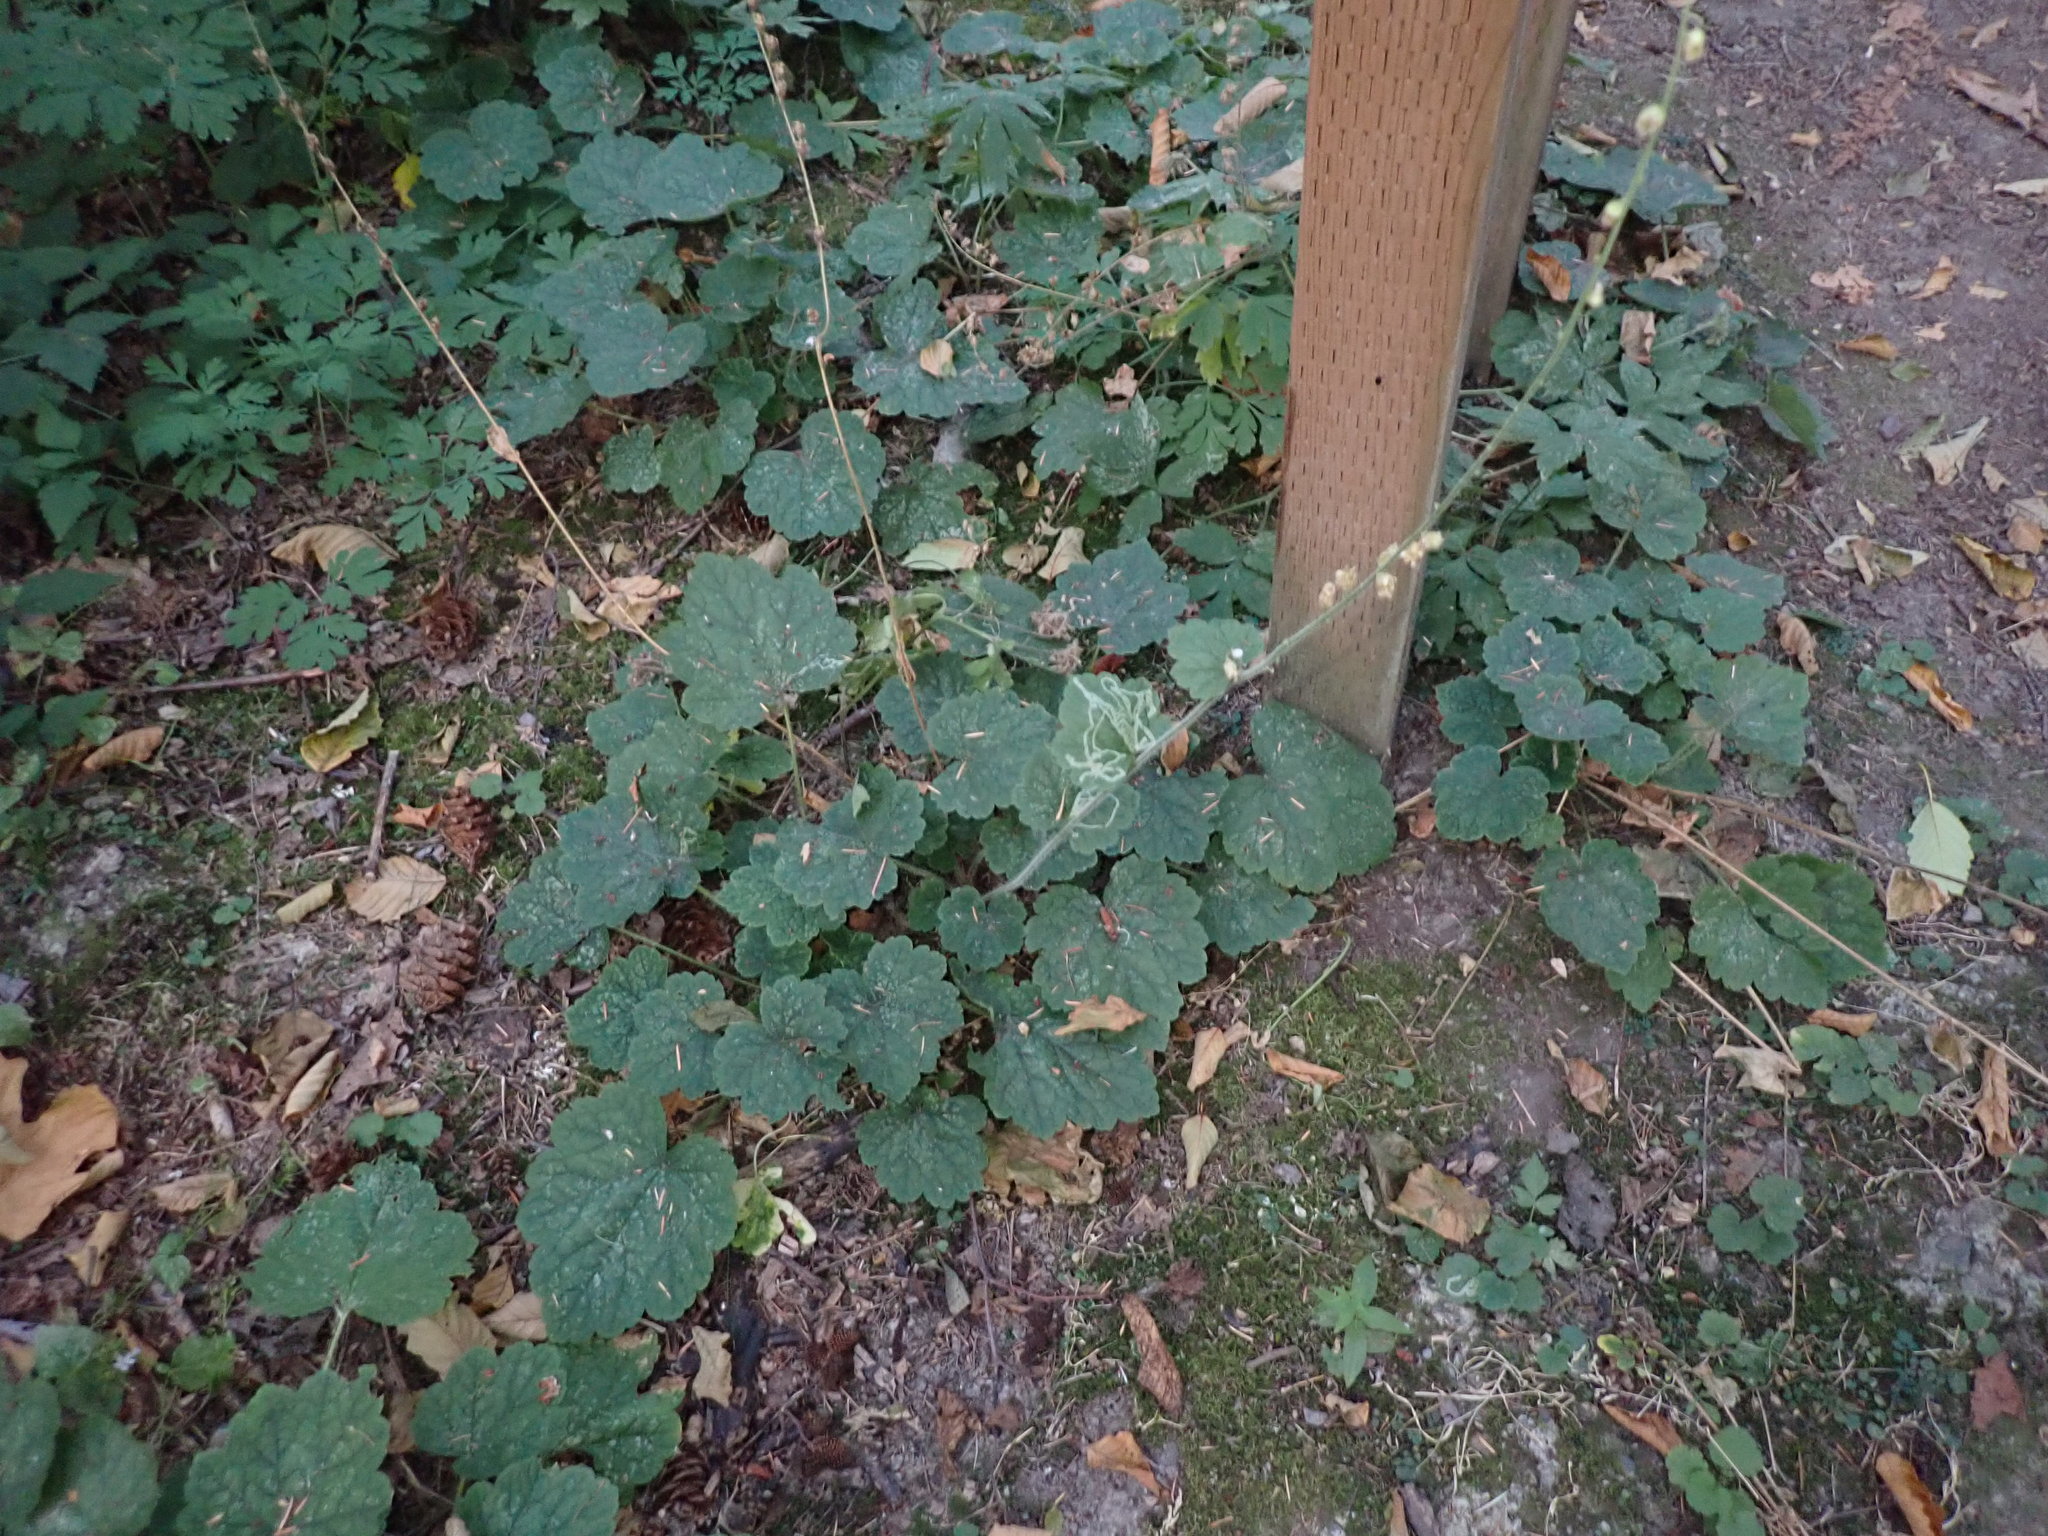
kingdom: Plantae
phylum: Tracheophyta
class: Magnoliopsida
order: Saxifragales
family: Saxifragaceae
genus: Tellima
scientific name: Tellima grandiflora
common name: Fringecups
